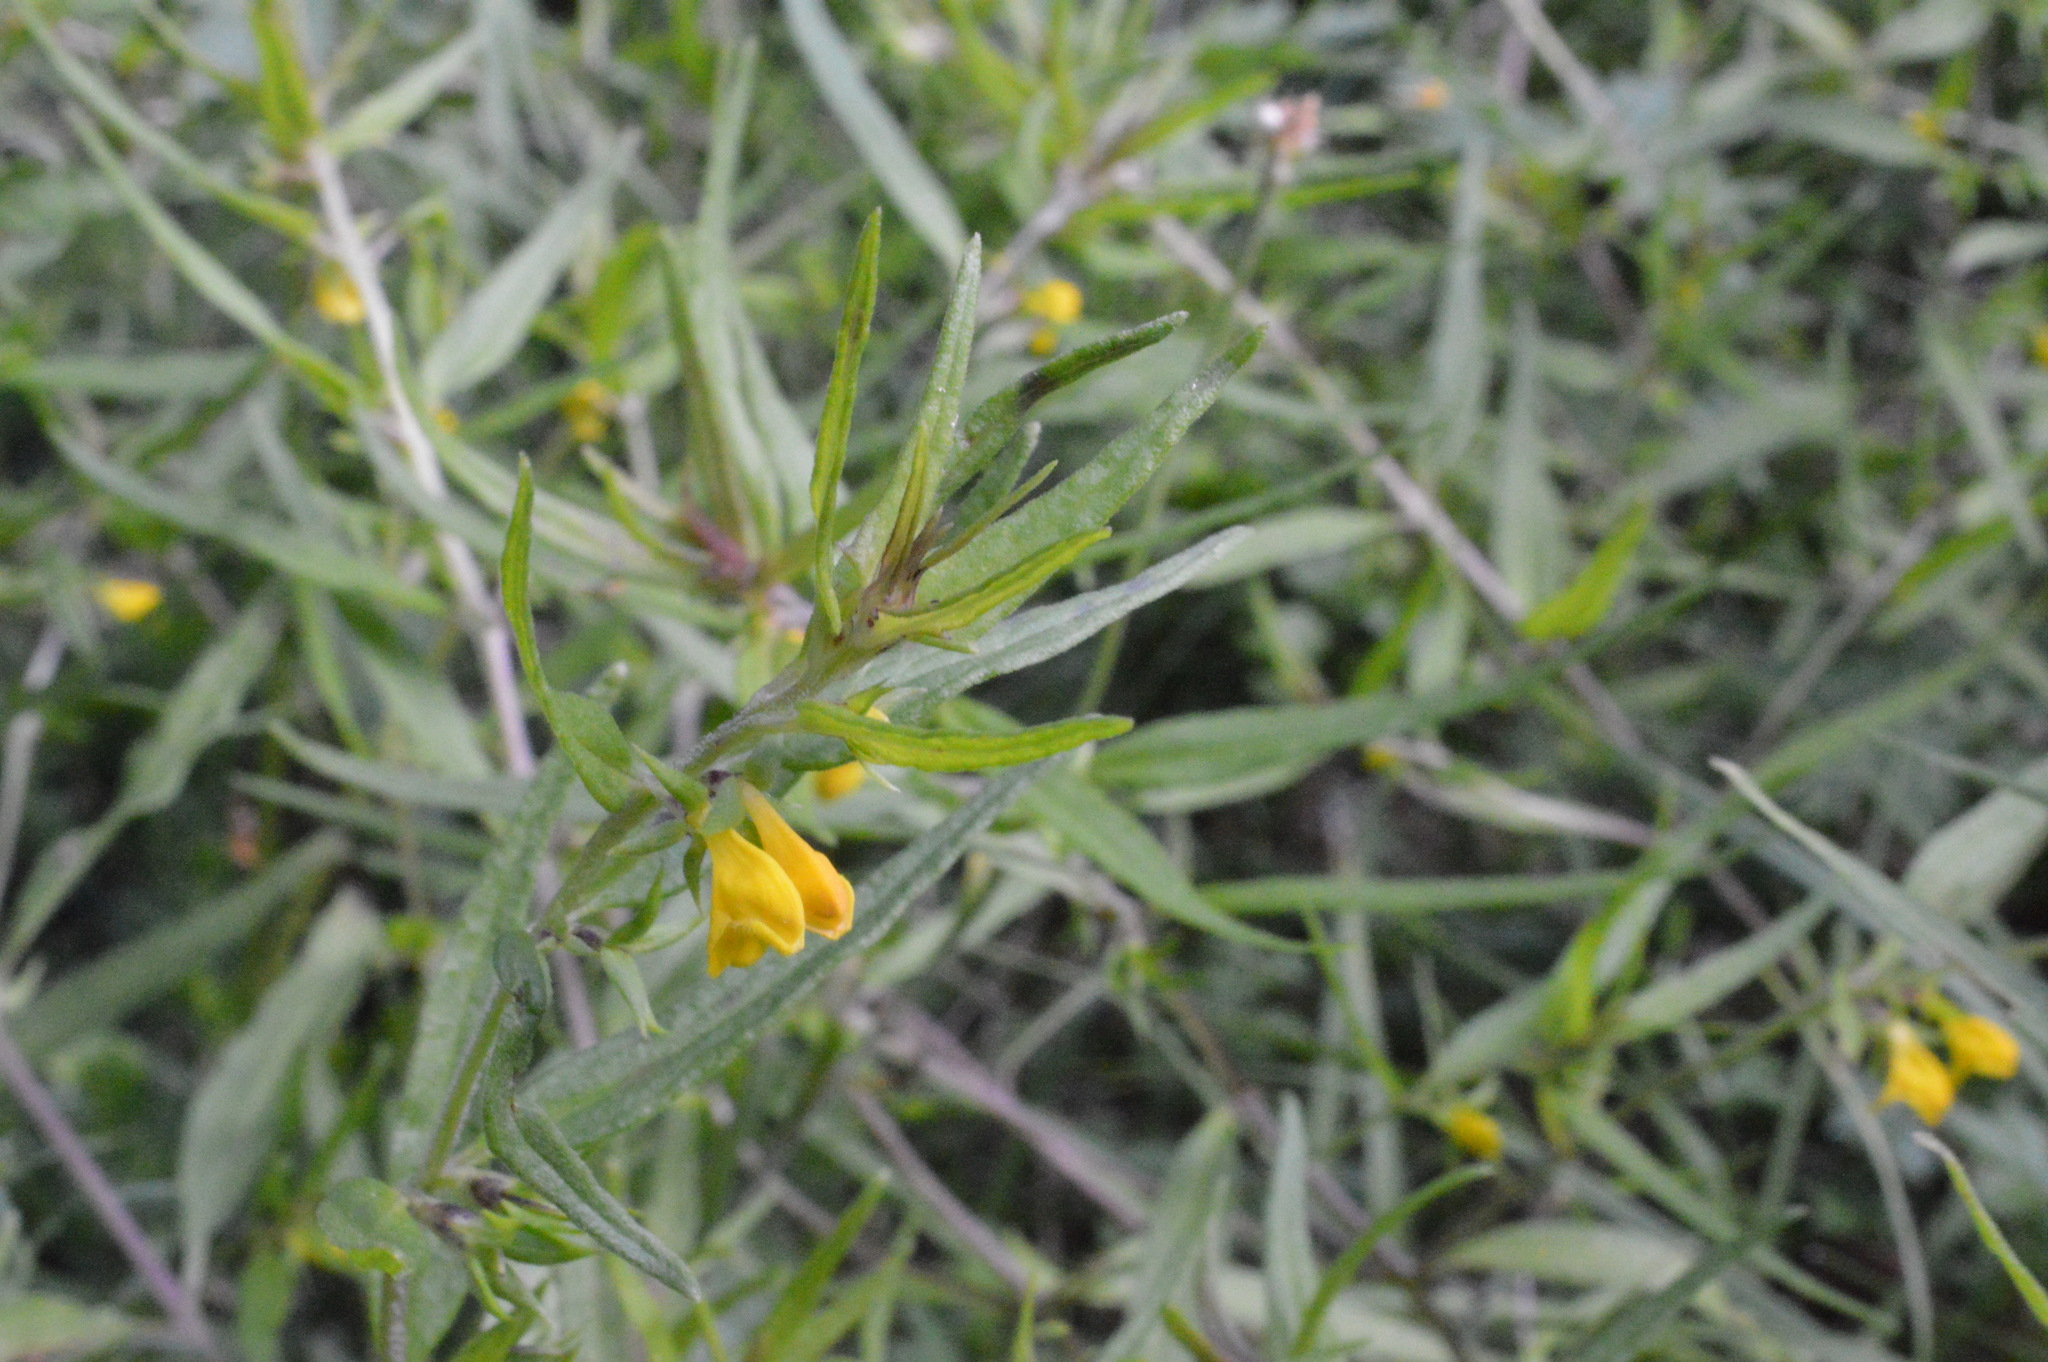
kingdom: Plantae
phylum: Tracheophyta
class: Magnoliopsida
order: Lamiales
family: Orobanchaceae
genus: Melampyrum
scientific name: Melampyrum sylvaticum
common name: Small cow-wheat
